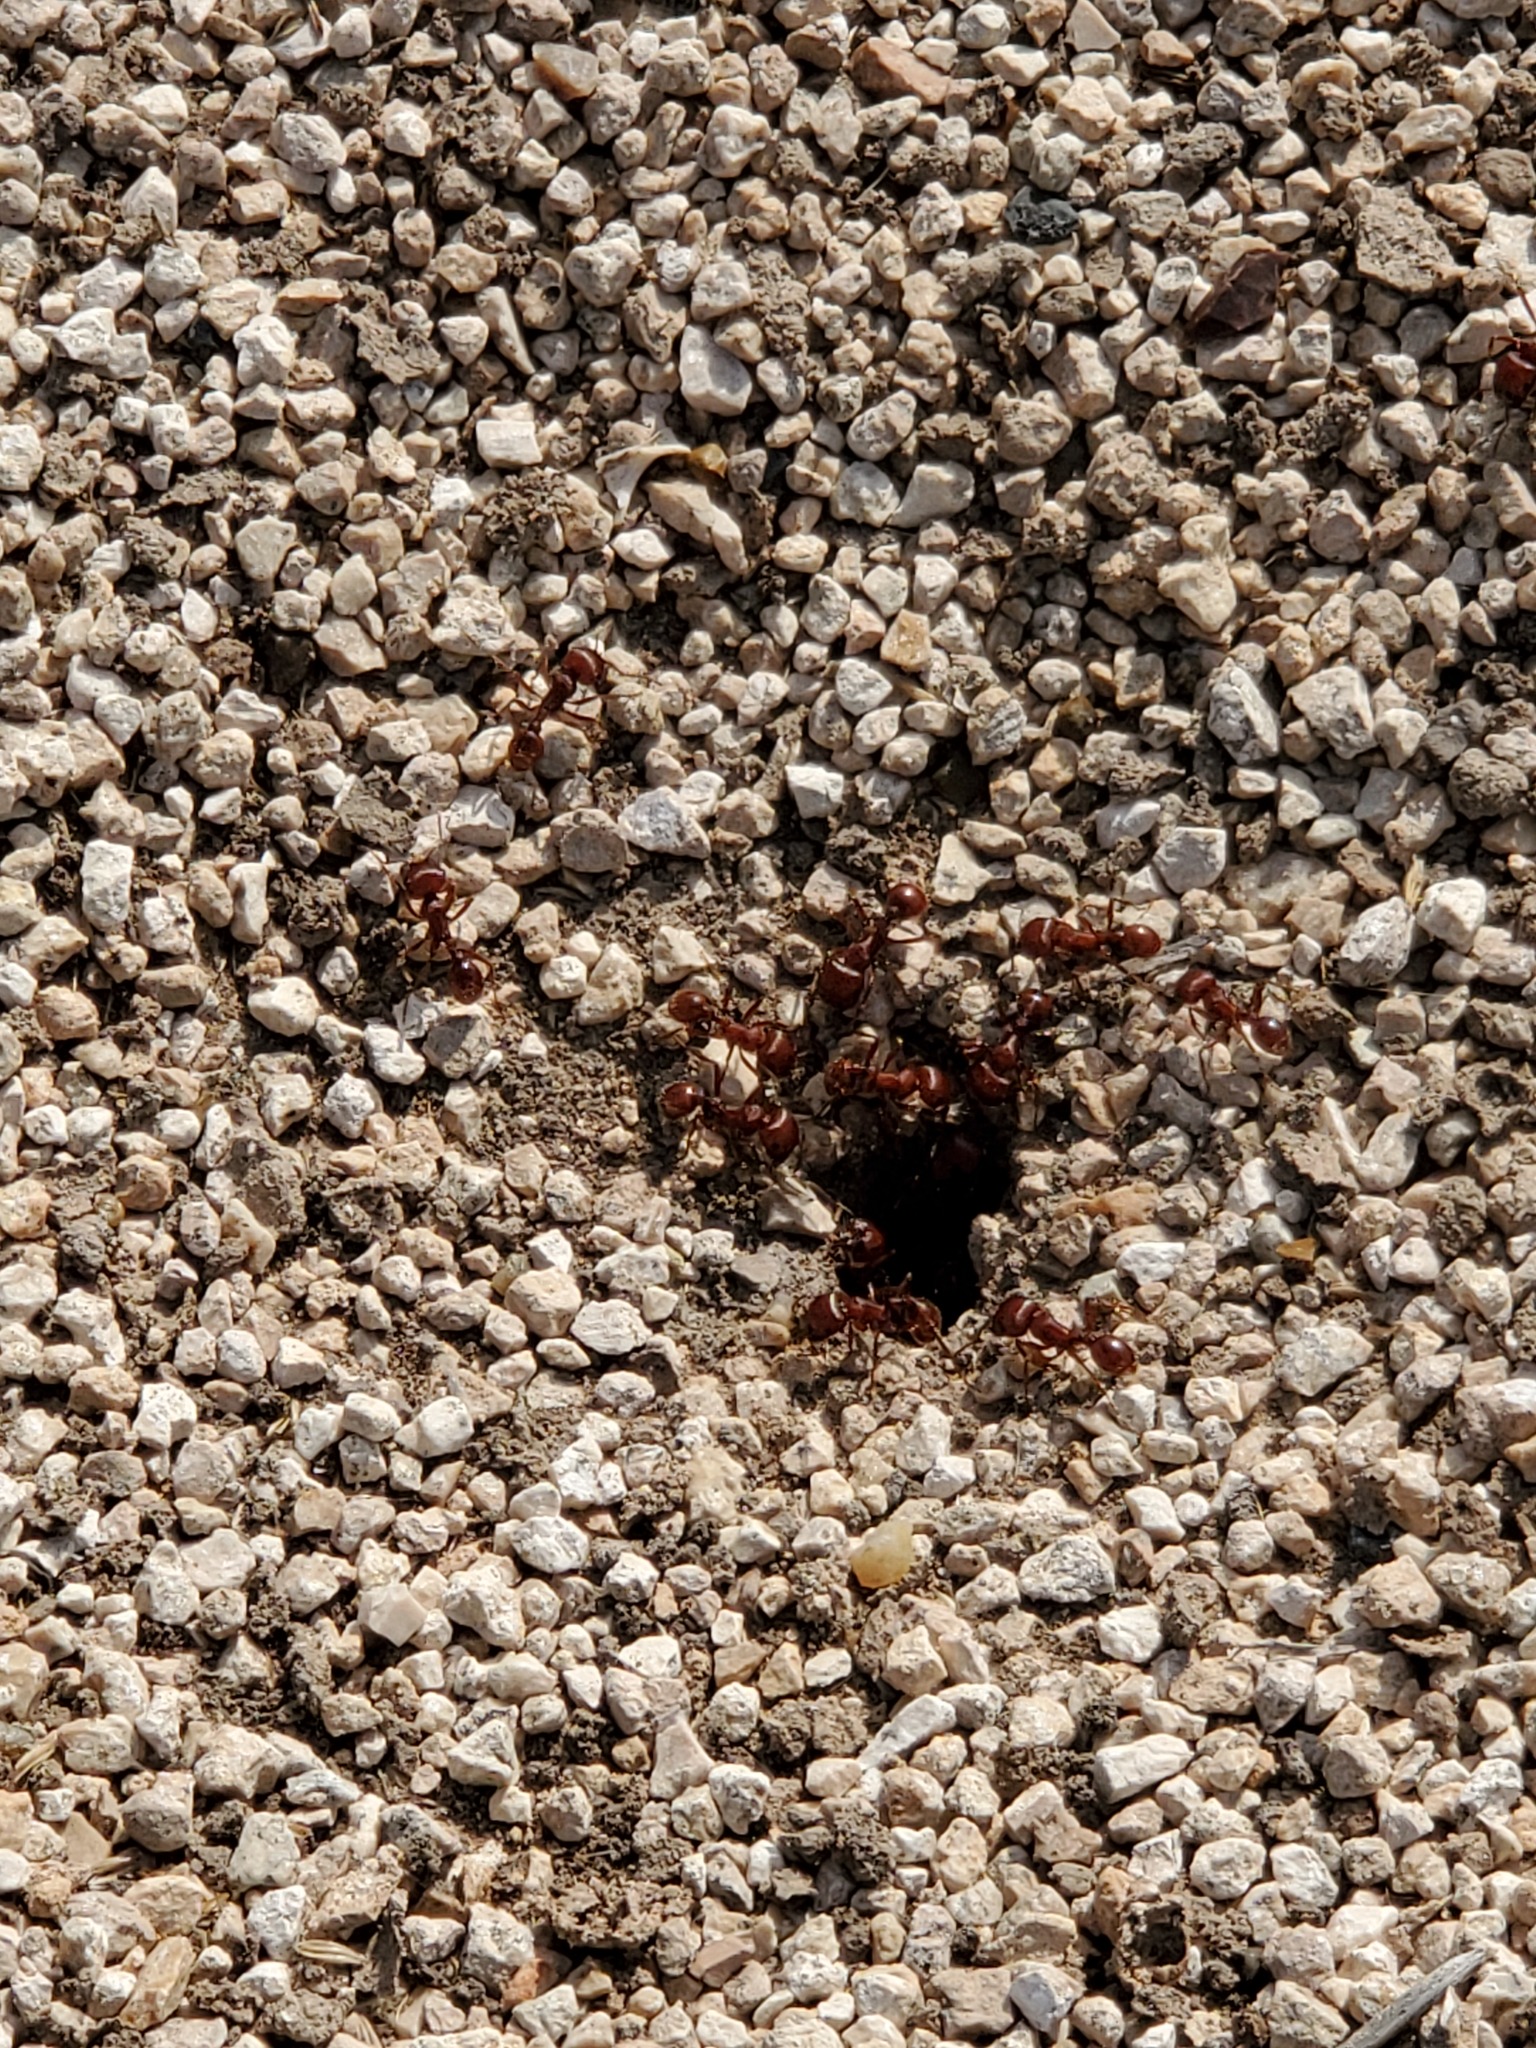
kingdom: Animalia
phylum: Arthropoda
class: Insecta
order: Hymenoptera
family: Formicidae
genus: Pogonomyrmex
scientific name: Pogonomyrmex barbatus
